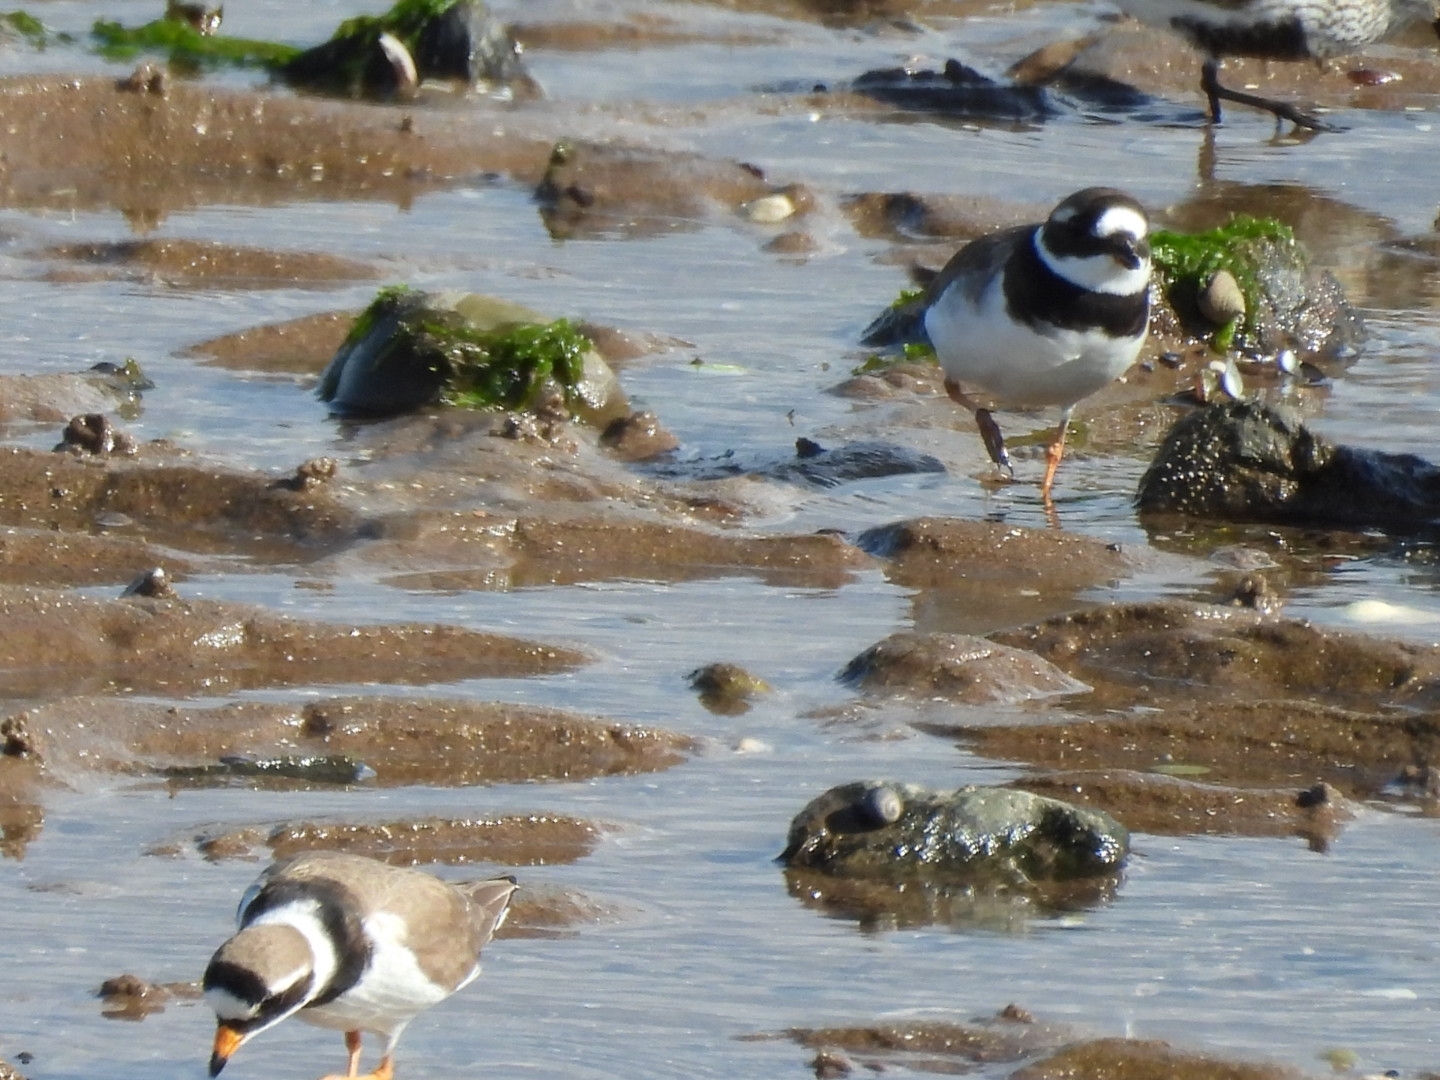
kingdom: Animalia
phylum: Chordata
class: Aves
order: Charadriiformes
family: Charadriidae
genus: Charadrius
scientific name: Charadrius hiaticula
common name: Common ringed plover
